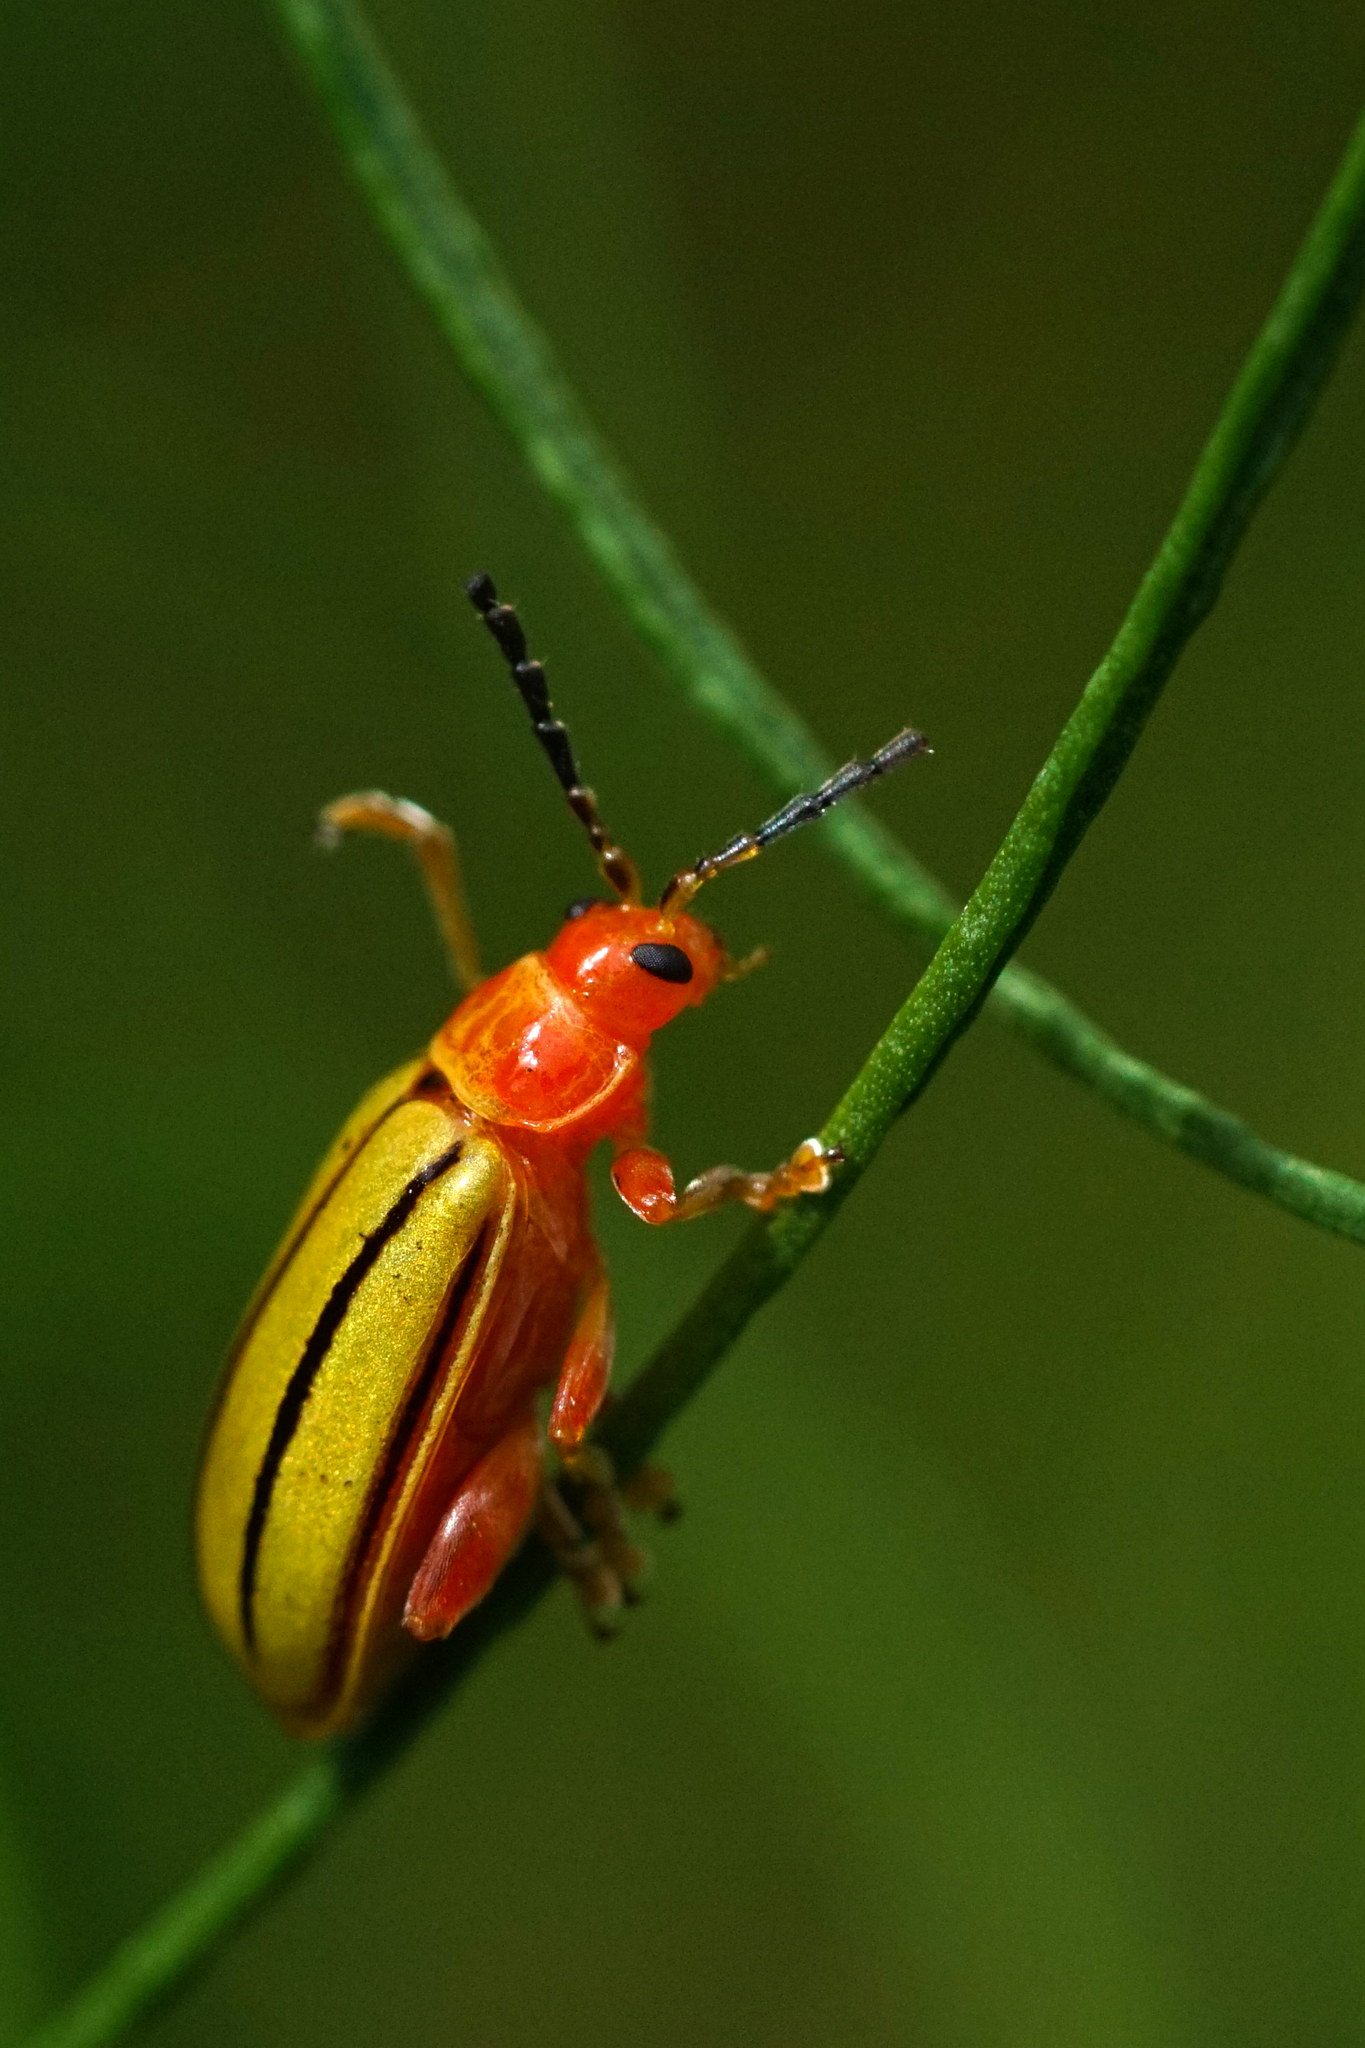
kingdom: Animalia
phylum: Arthropoda
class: Insecta
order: Coleoptera
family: Chrysomelidae
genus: Disonycha
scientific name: Disonycha
